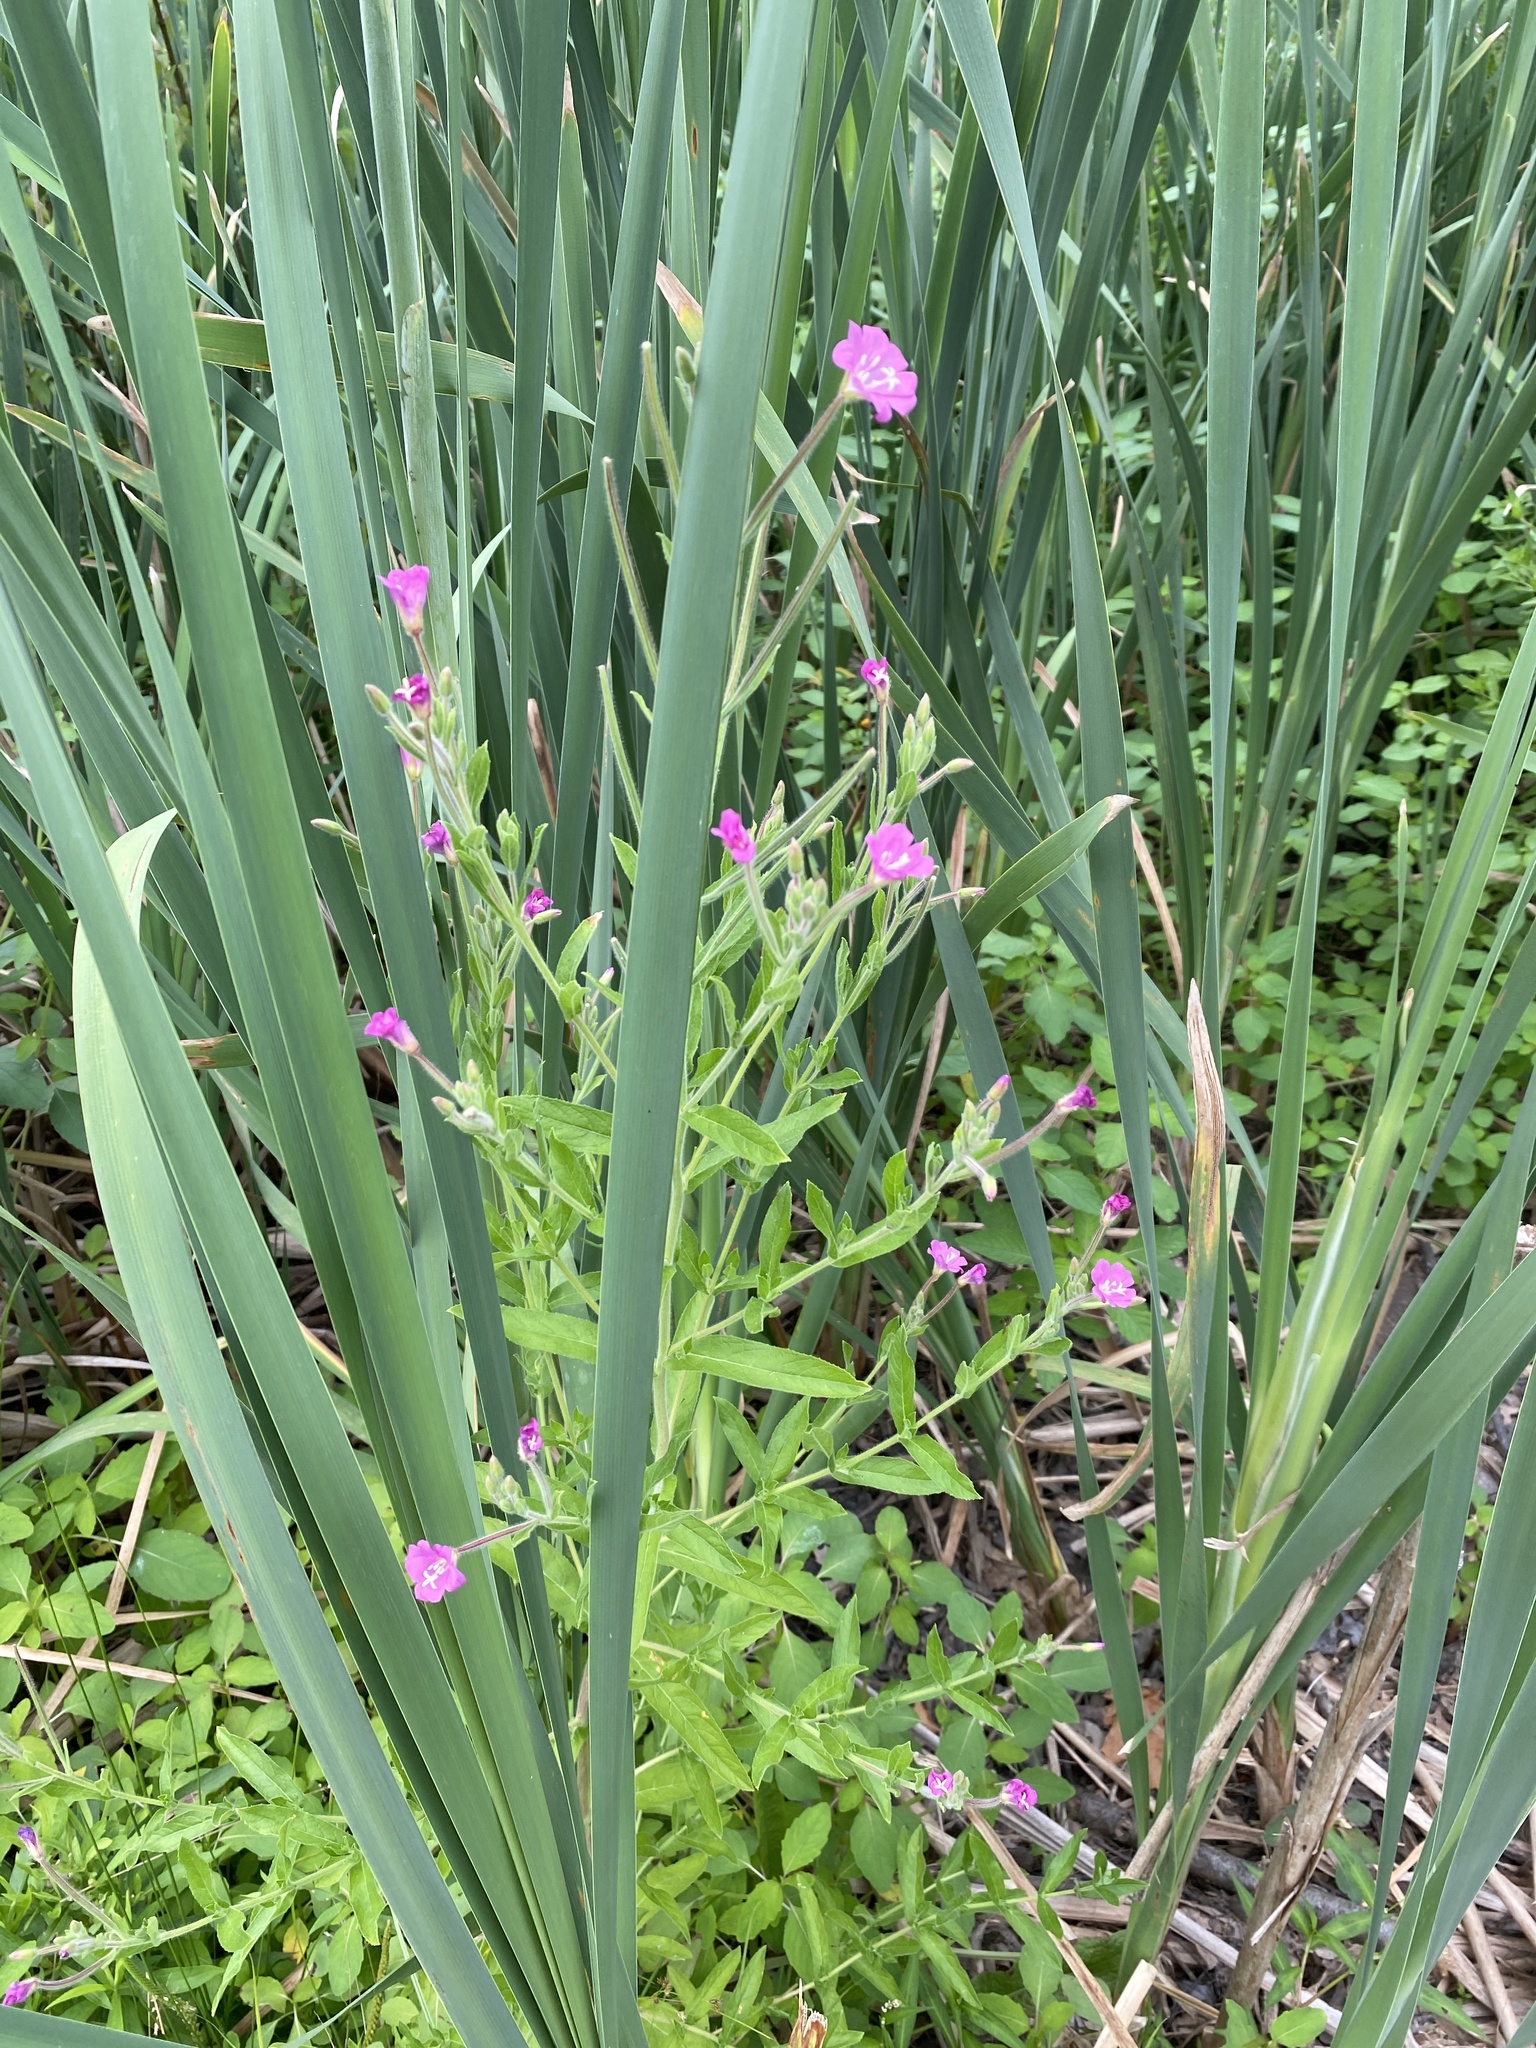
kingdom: Plantae
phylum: Tracheophyta
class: Magnoliopsida
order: Myrtales
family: Onagraceae
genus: Epilobium
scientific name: Epilobium hirsutum
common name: Great willowherb
